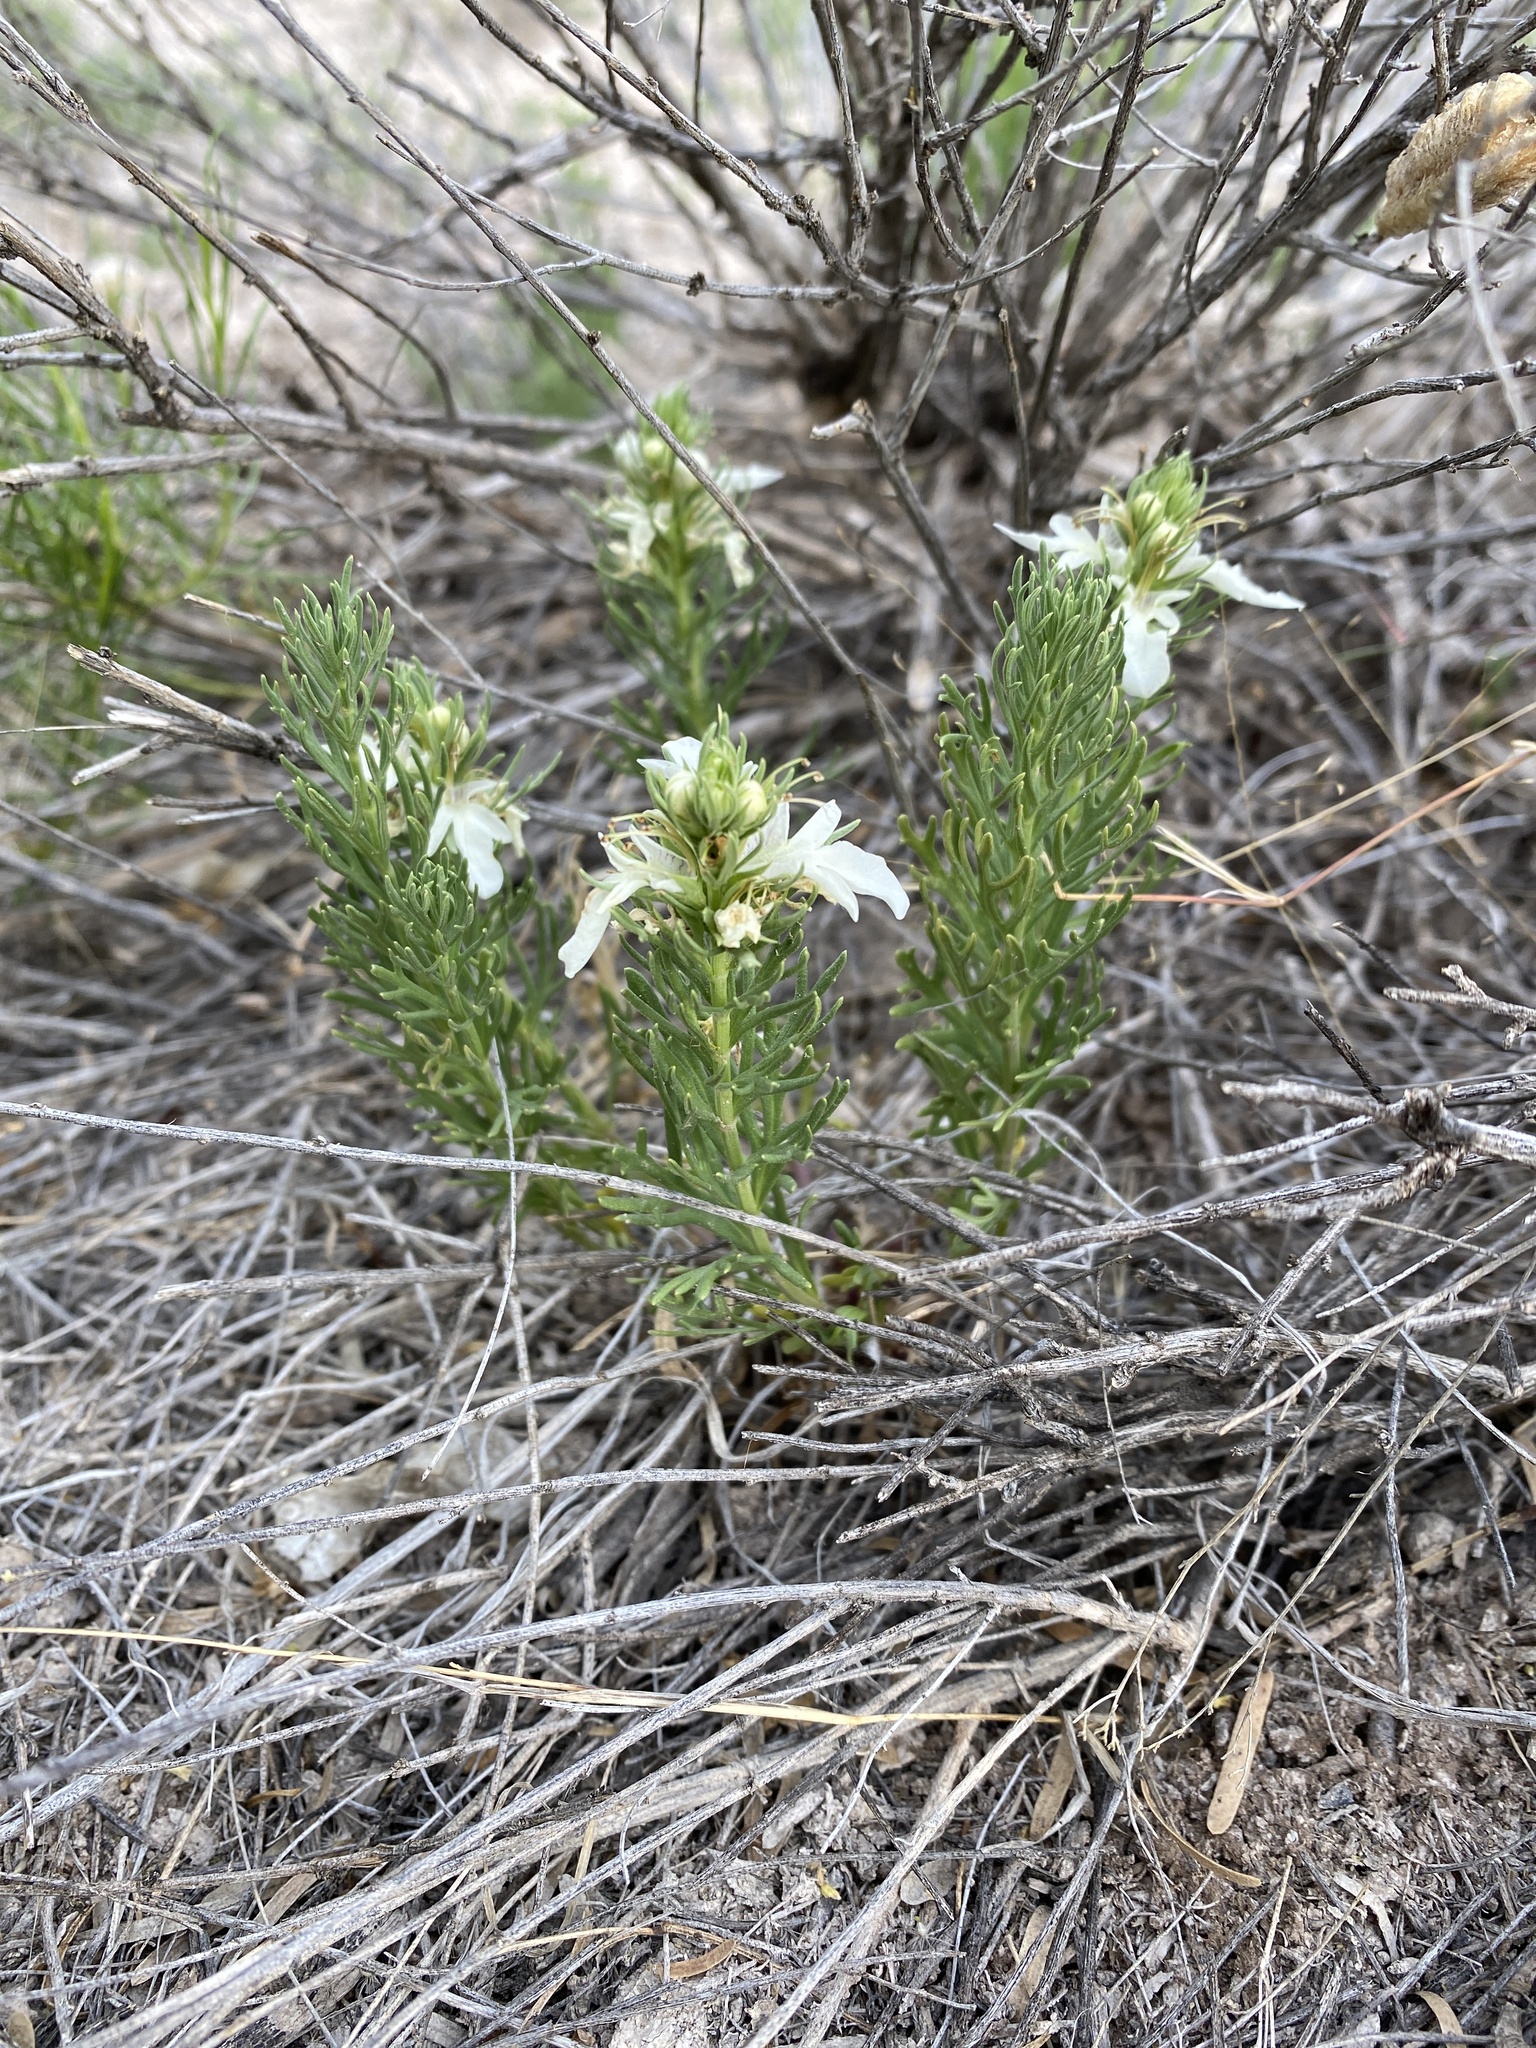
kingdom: Plantae
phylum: Tracheophyta
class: Magnoliopsida
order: Lamiales
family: Lamiaceae
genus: Teucrium
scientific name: Teucrium laciniatum
